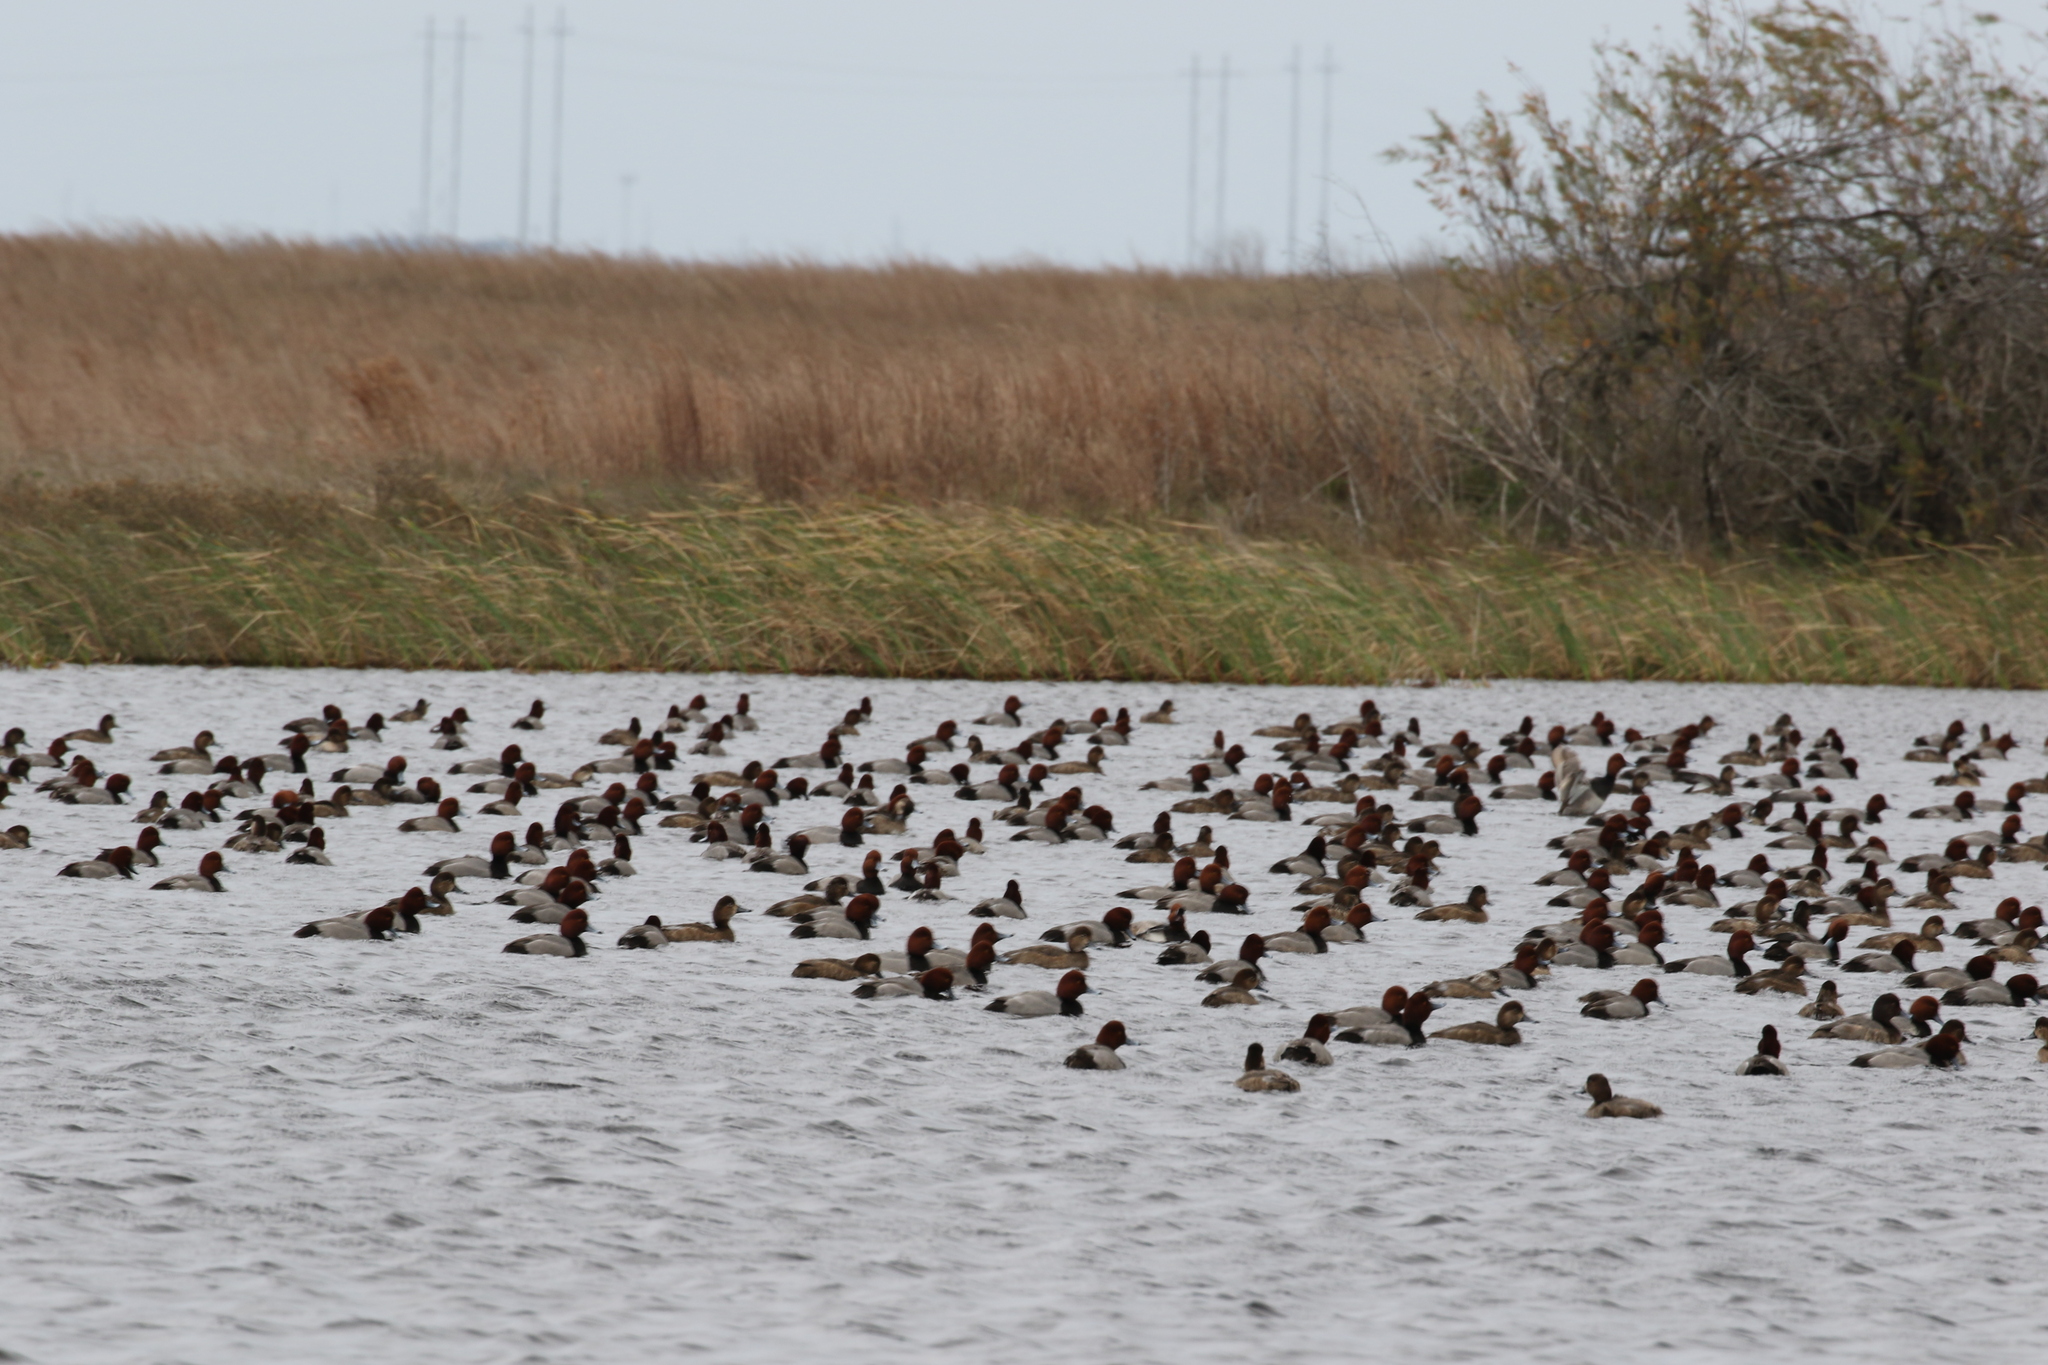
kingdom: Animalia
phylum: Chordata
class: Aves
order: Anseriformes
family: Anatidae
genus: Aythya
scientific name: Aythya americana
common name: Redhead
